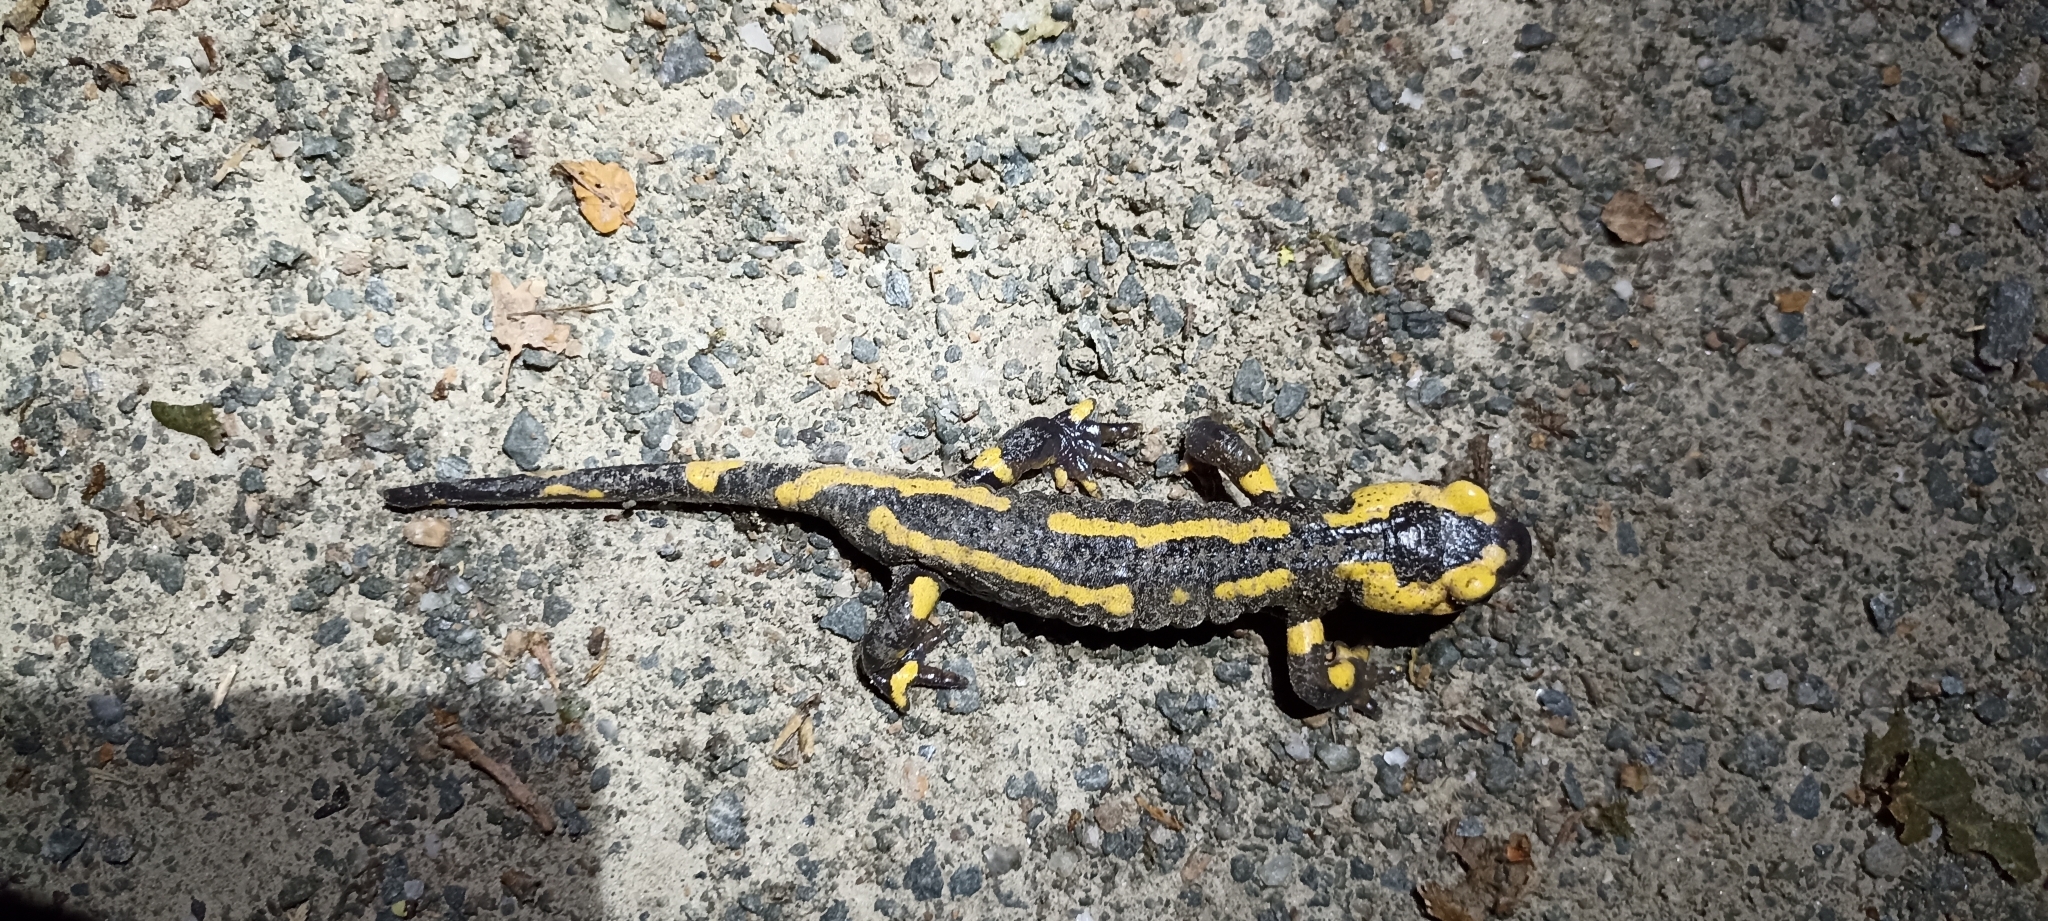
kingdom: Animalia
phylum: Chordata
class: Amphibia
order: Caudata
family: Salamandridae
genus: Salamandra
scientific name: Salamandra salamandra
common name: Fire salamander
